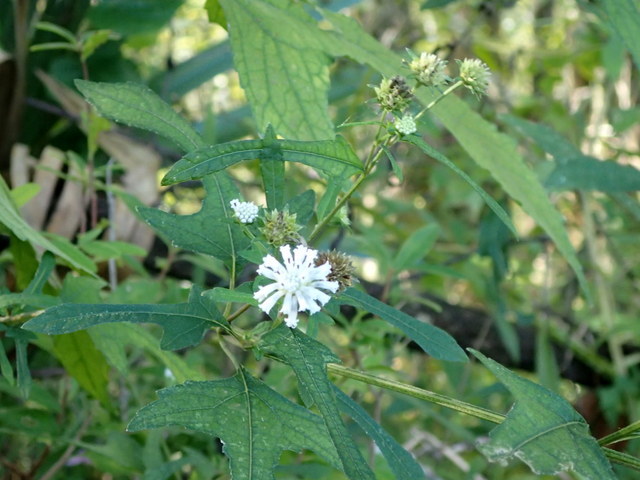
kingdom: Plantae
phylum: Tracheophyta
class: Magnoliopsida
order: Asterales
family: Asteraceae
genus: Melanthera
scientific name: Melanthera nivea
